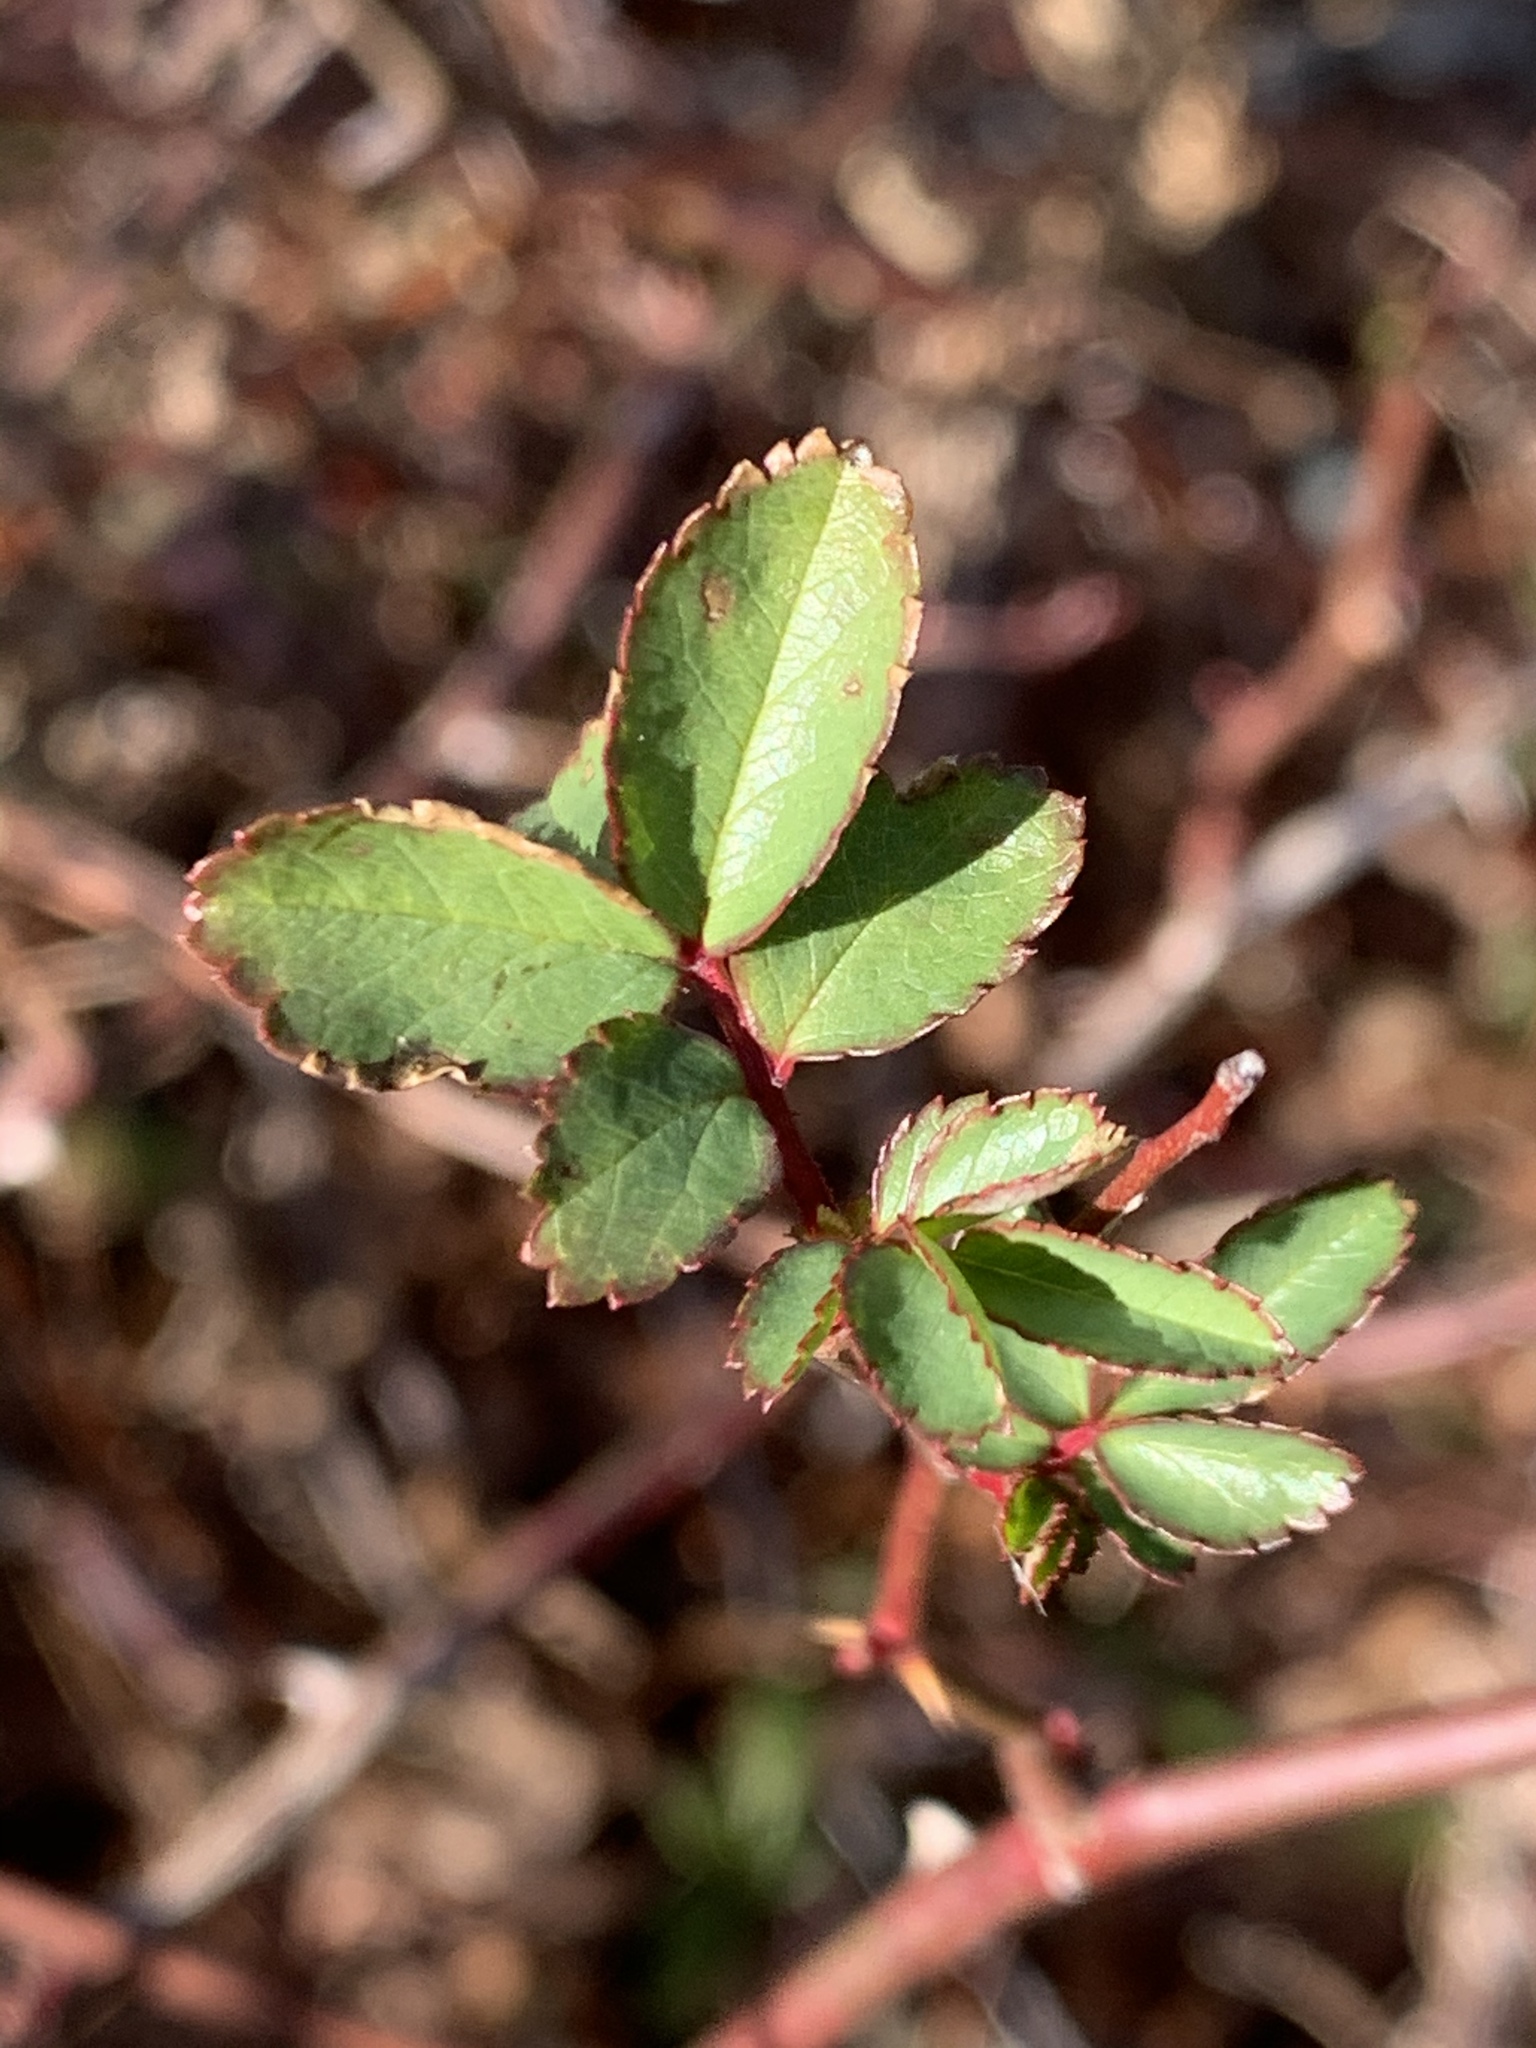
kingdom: Plantae
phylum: Tracheophyta
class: Magnoliopsida
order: Rosales
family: Rosaceae
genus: Rosa
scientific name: Rosa multiflora
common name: Multiflora rose
